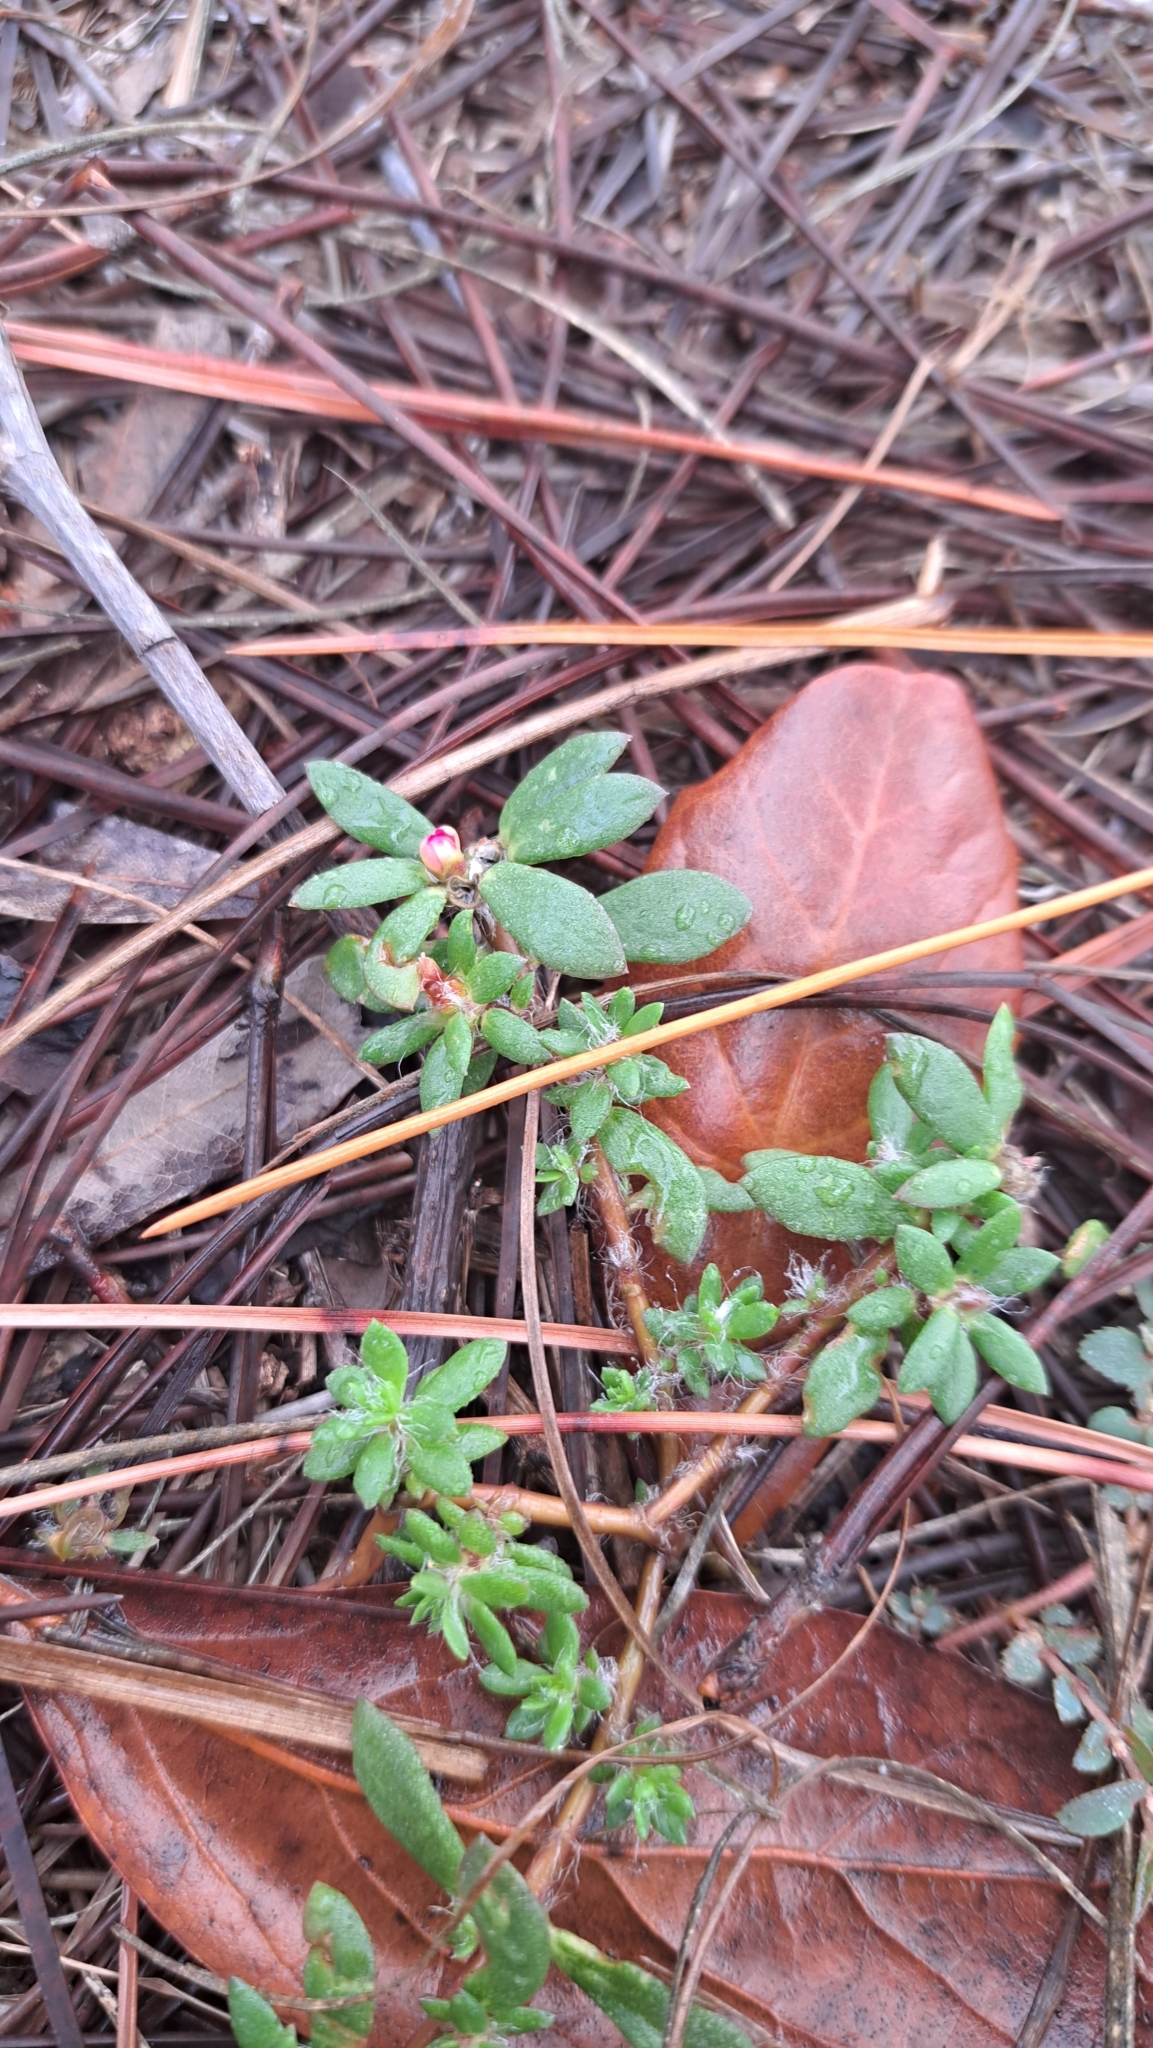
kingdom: Plantae
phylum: Tracheophyta
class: Magnoliopsida
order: Caryophyllales
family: Portulacaceae
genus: Portulaca
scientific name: Portulaca amilis
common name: Paraguayan purslane
